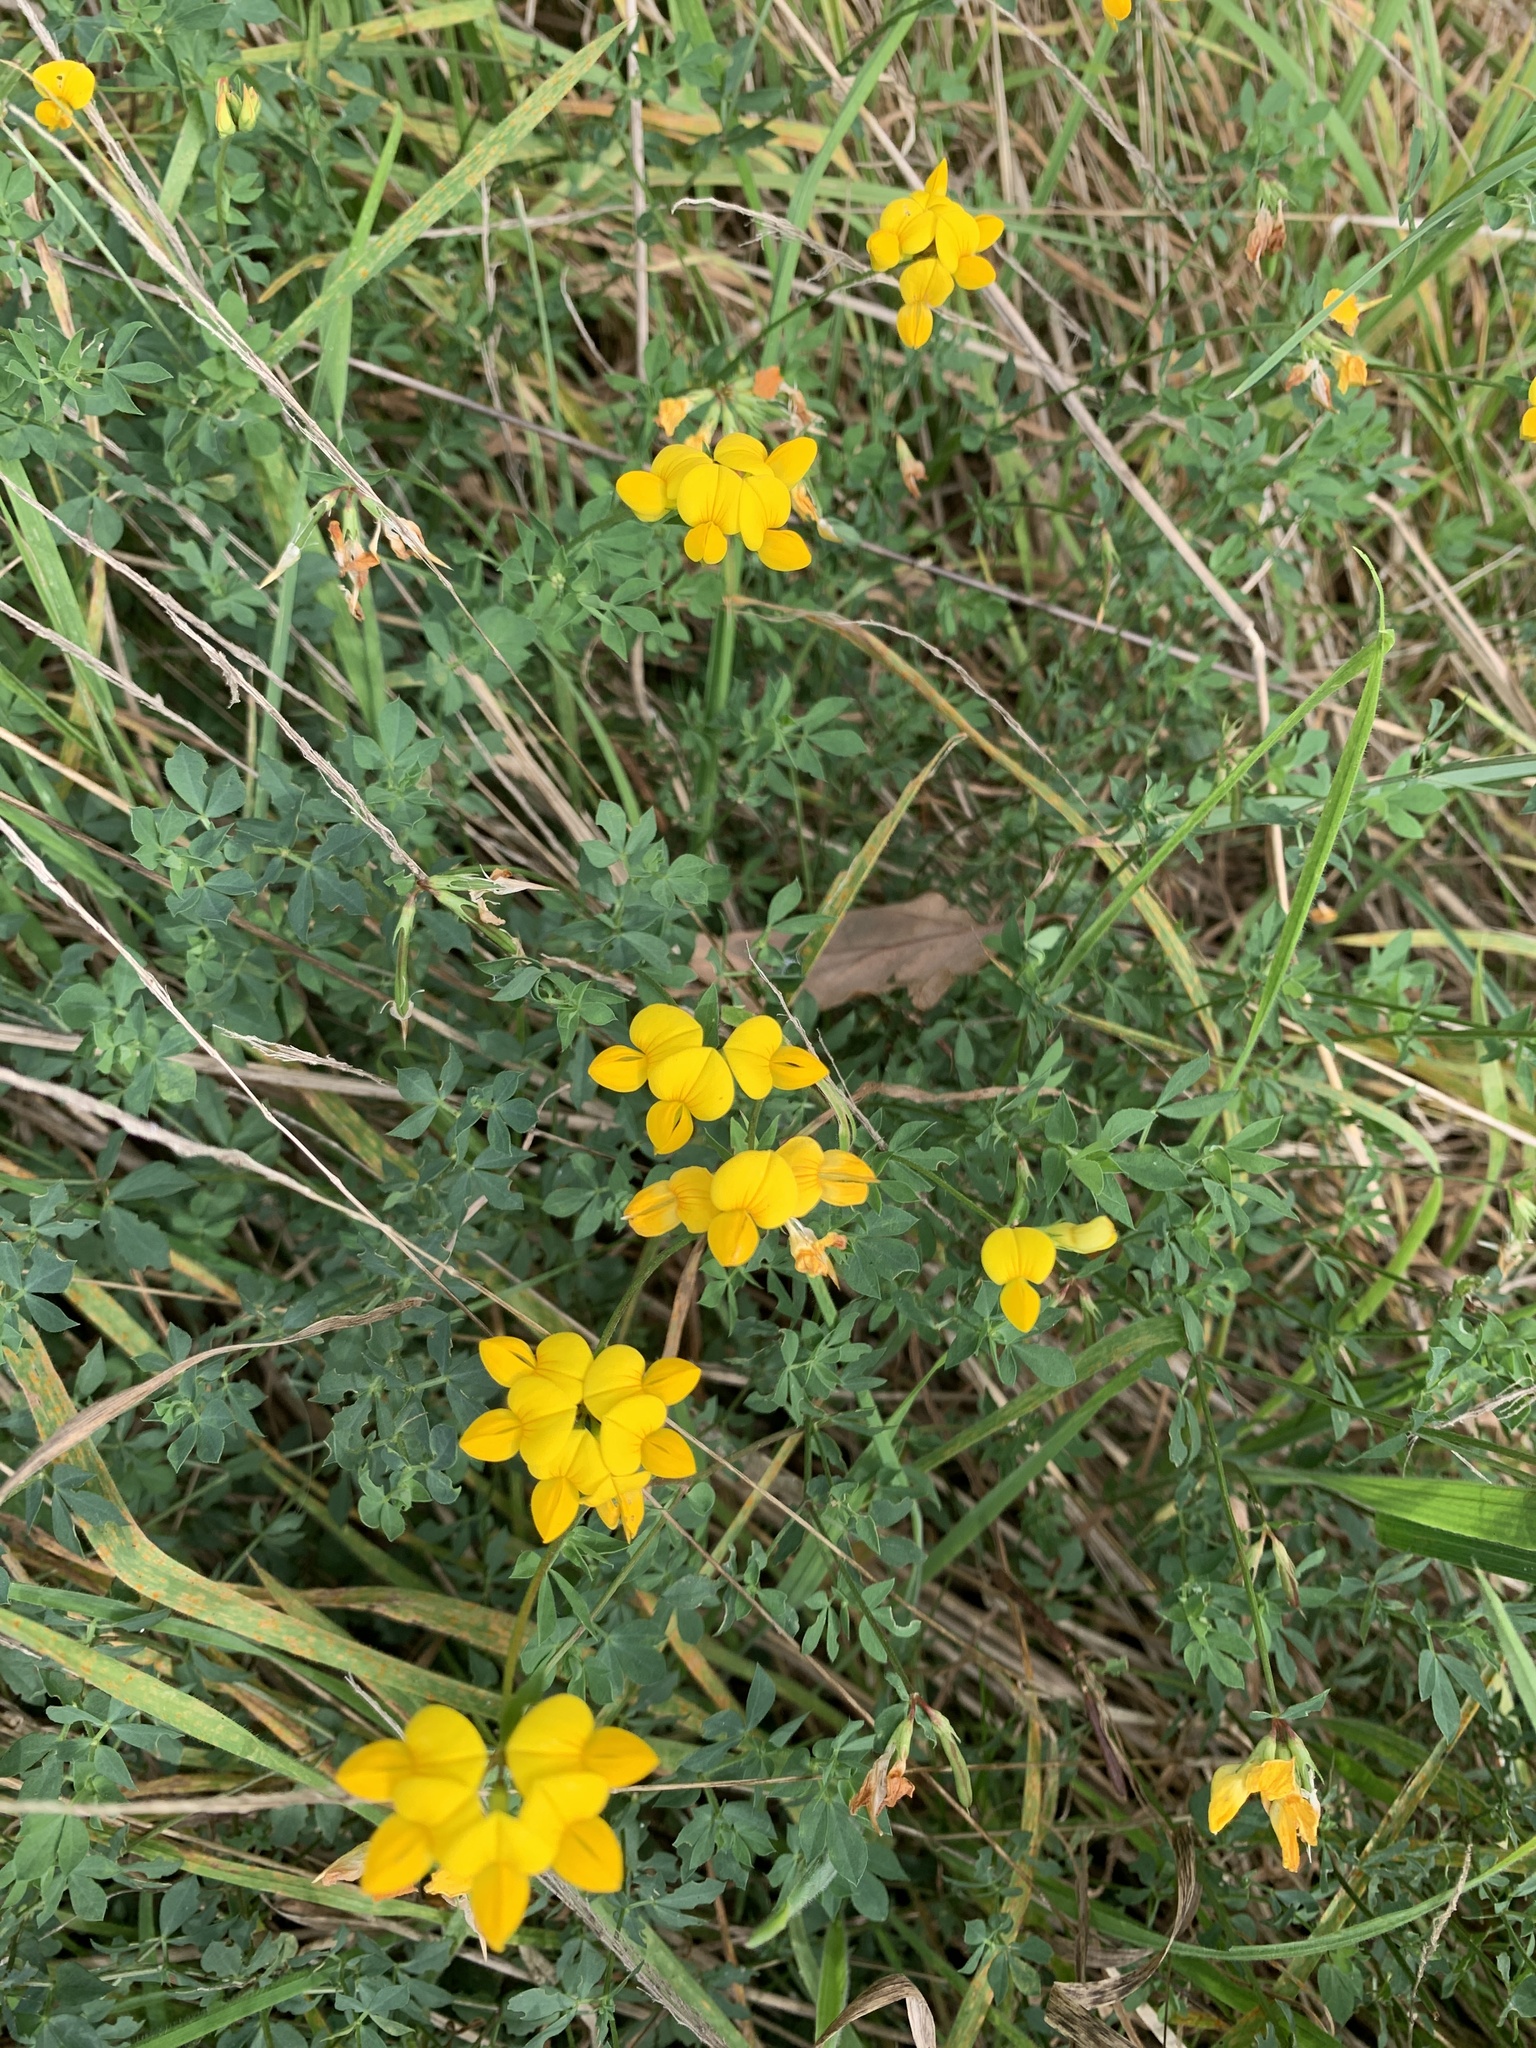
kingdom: Plantae
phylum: Tracheophyta
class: Magnoliopsida
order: Fabales
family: Fabaceae
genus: Lotus
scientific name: Lotus corniculatus
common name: Common bird's-foot-trefoil
